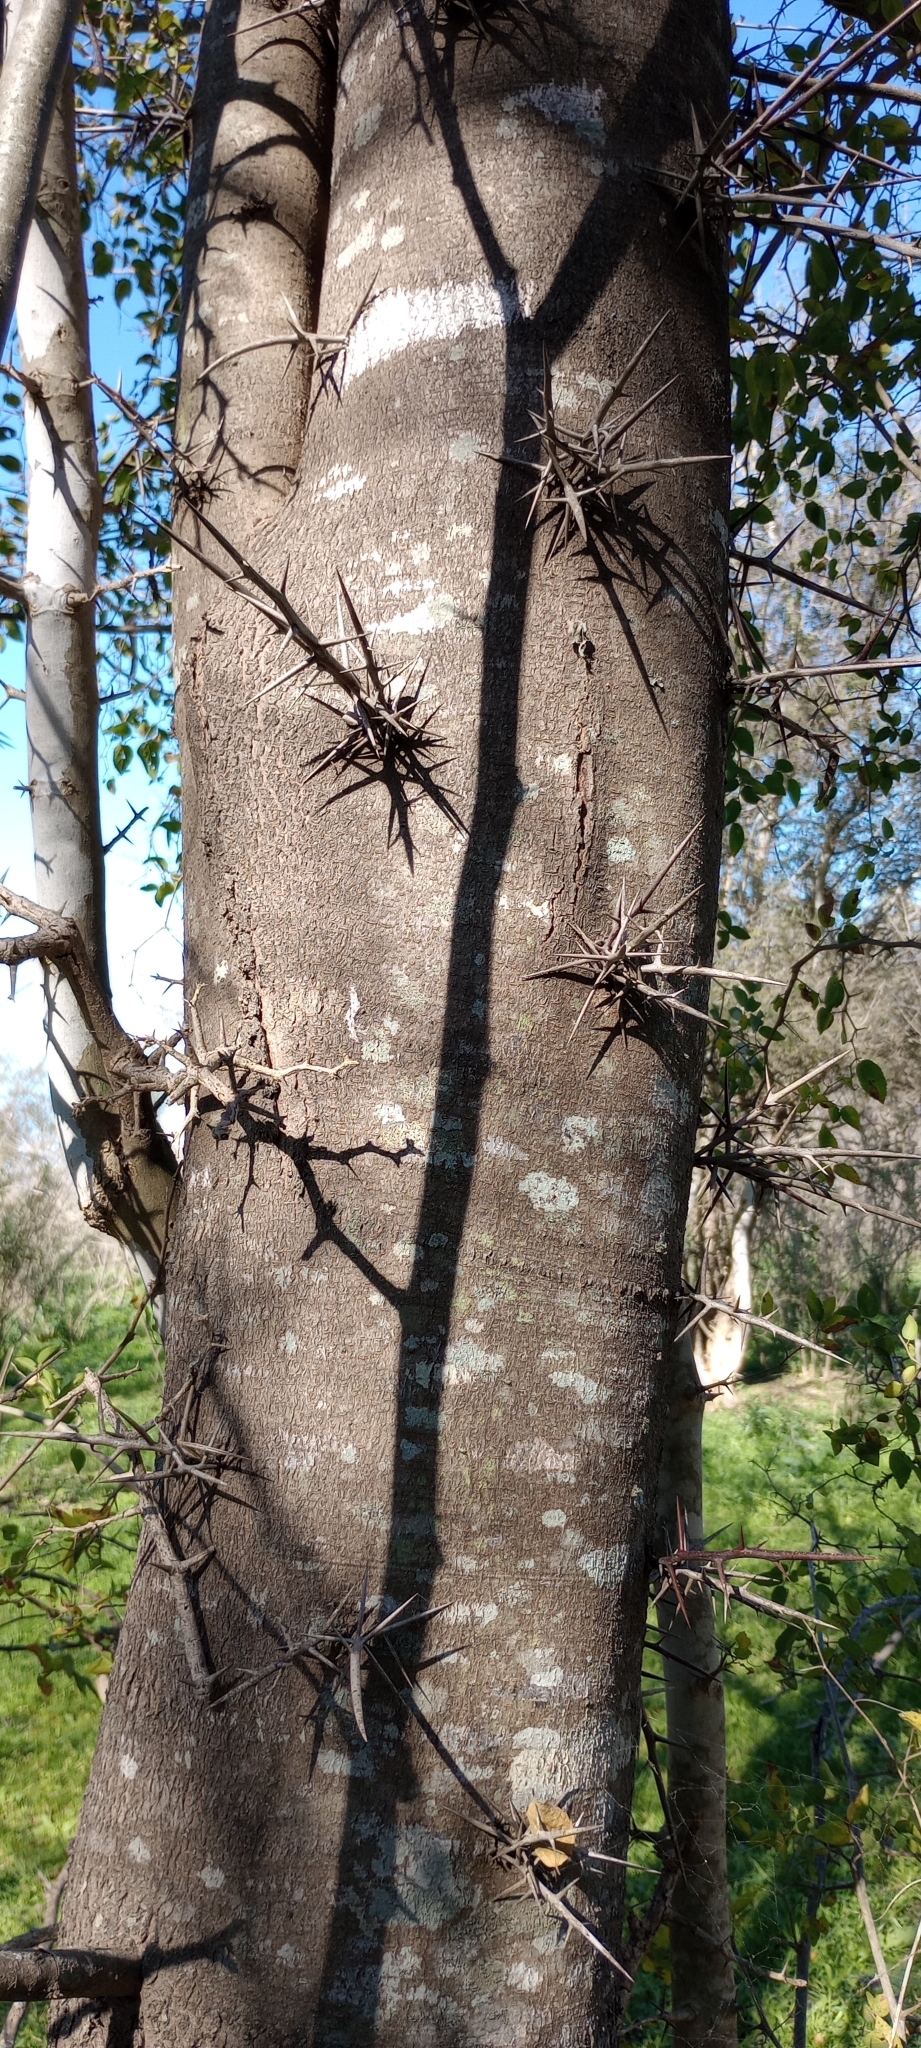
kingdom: Plantae
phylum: Tracheophyta
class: Magnoliopsida
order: Fabales
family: Fabaceae
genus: Gleditsia
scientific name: Gleditsia triacanthos
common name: Common honeylocust
